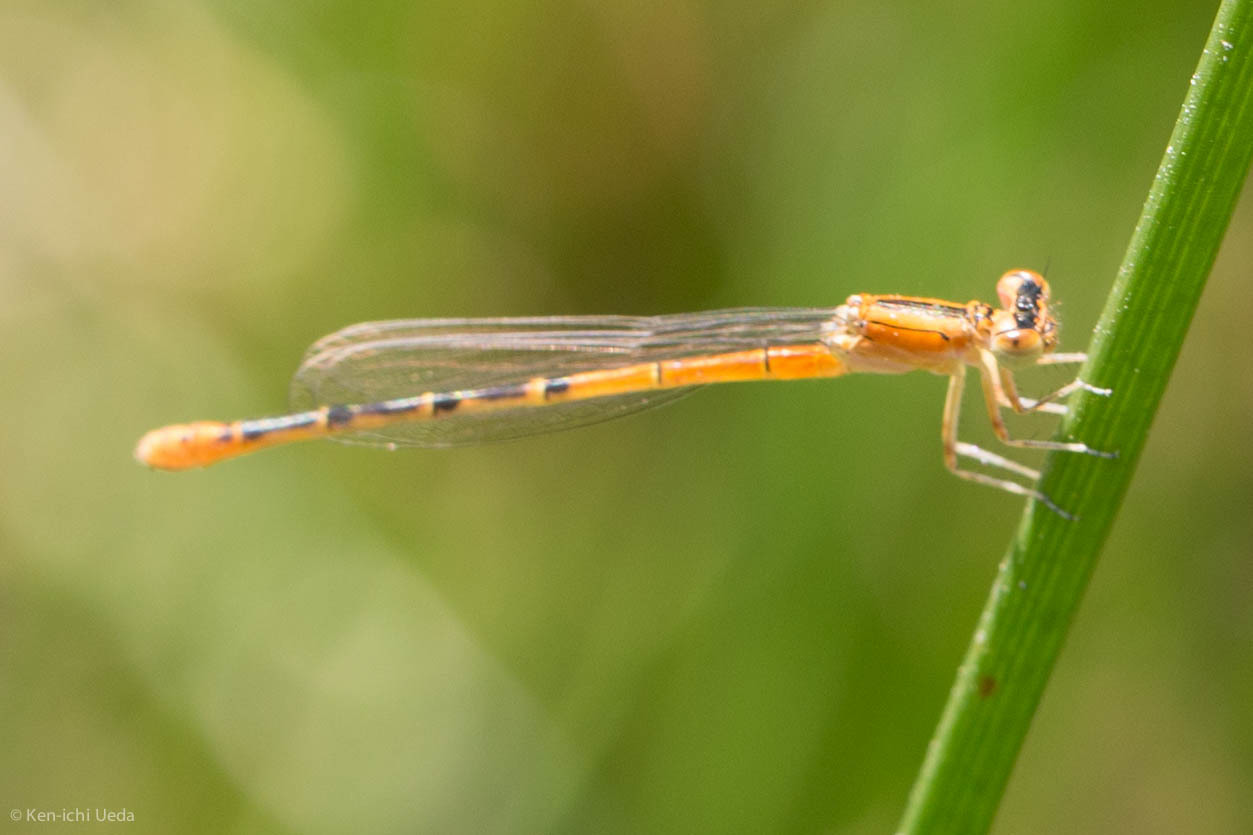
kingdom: Animalia
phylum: Arthropoda
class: Insecta
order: Odonata
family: Coenagrionidae
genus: Ischnura
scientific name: Ischnura perparva
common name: Western forktail
